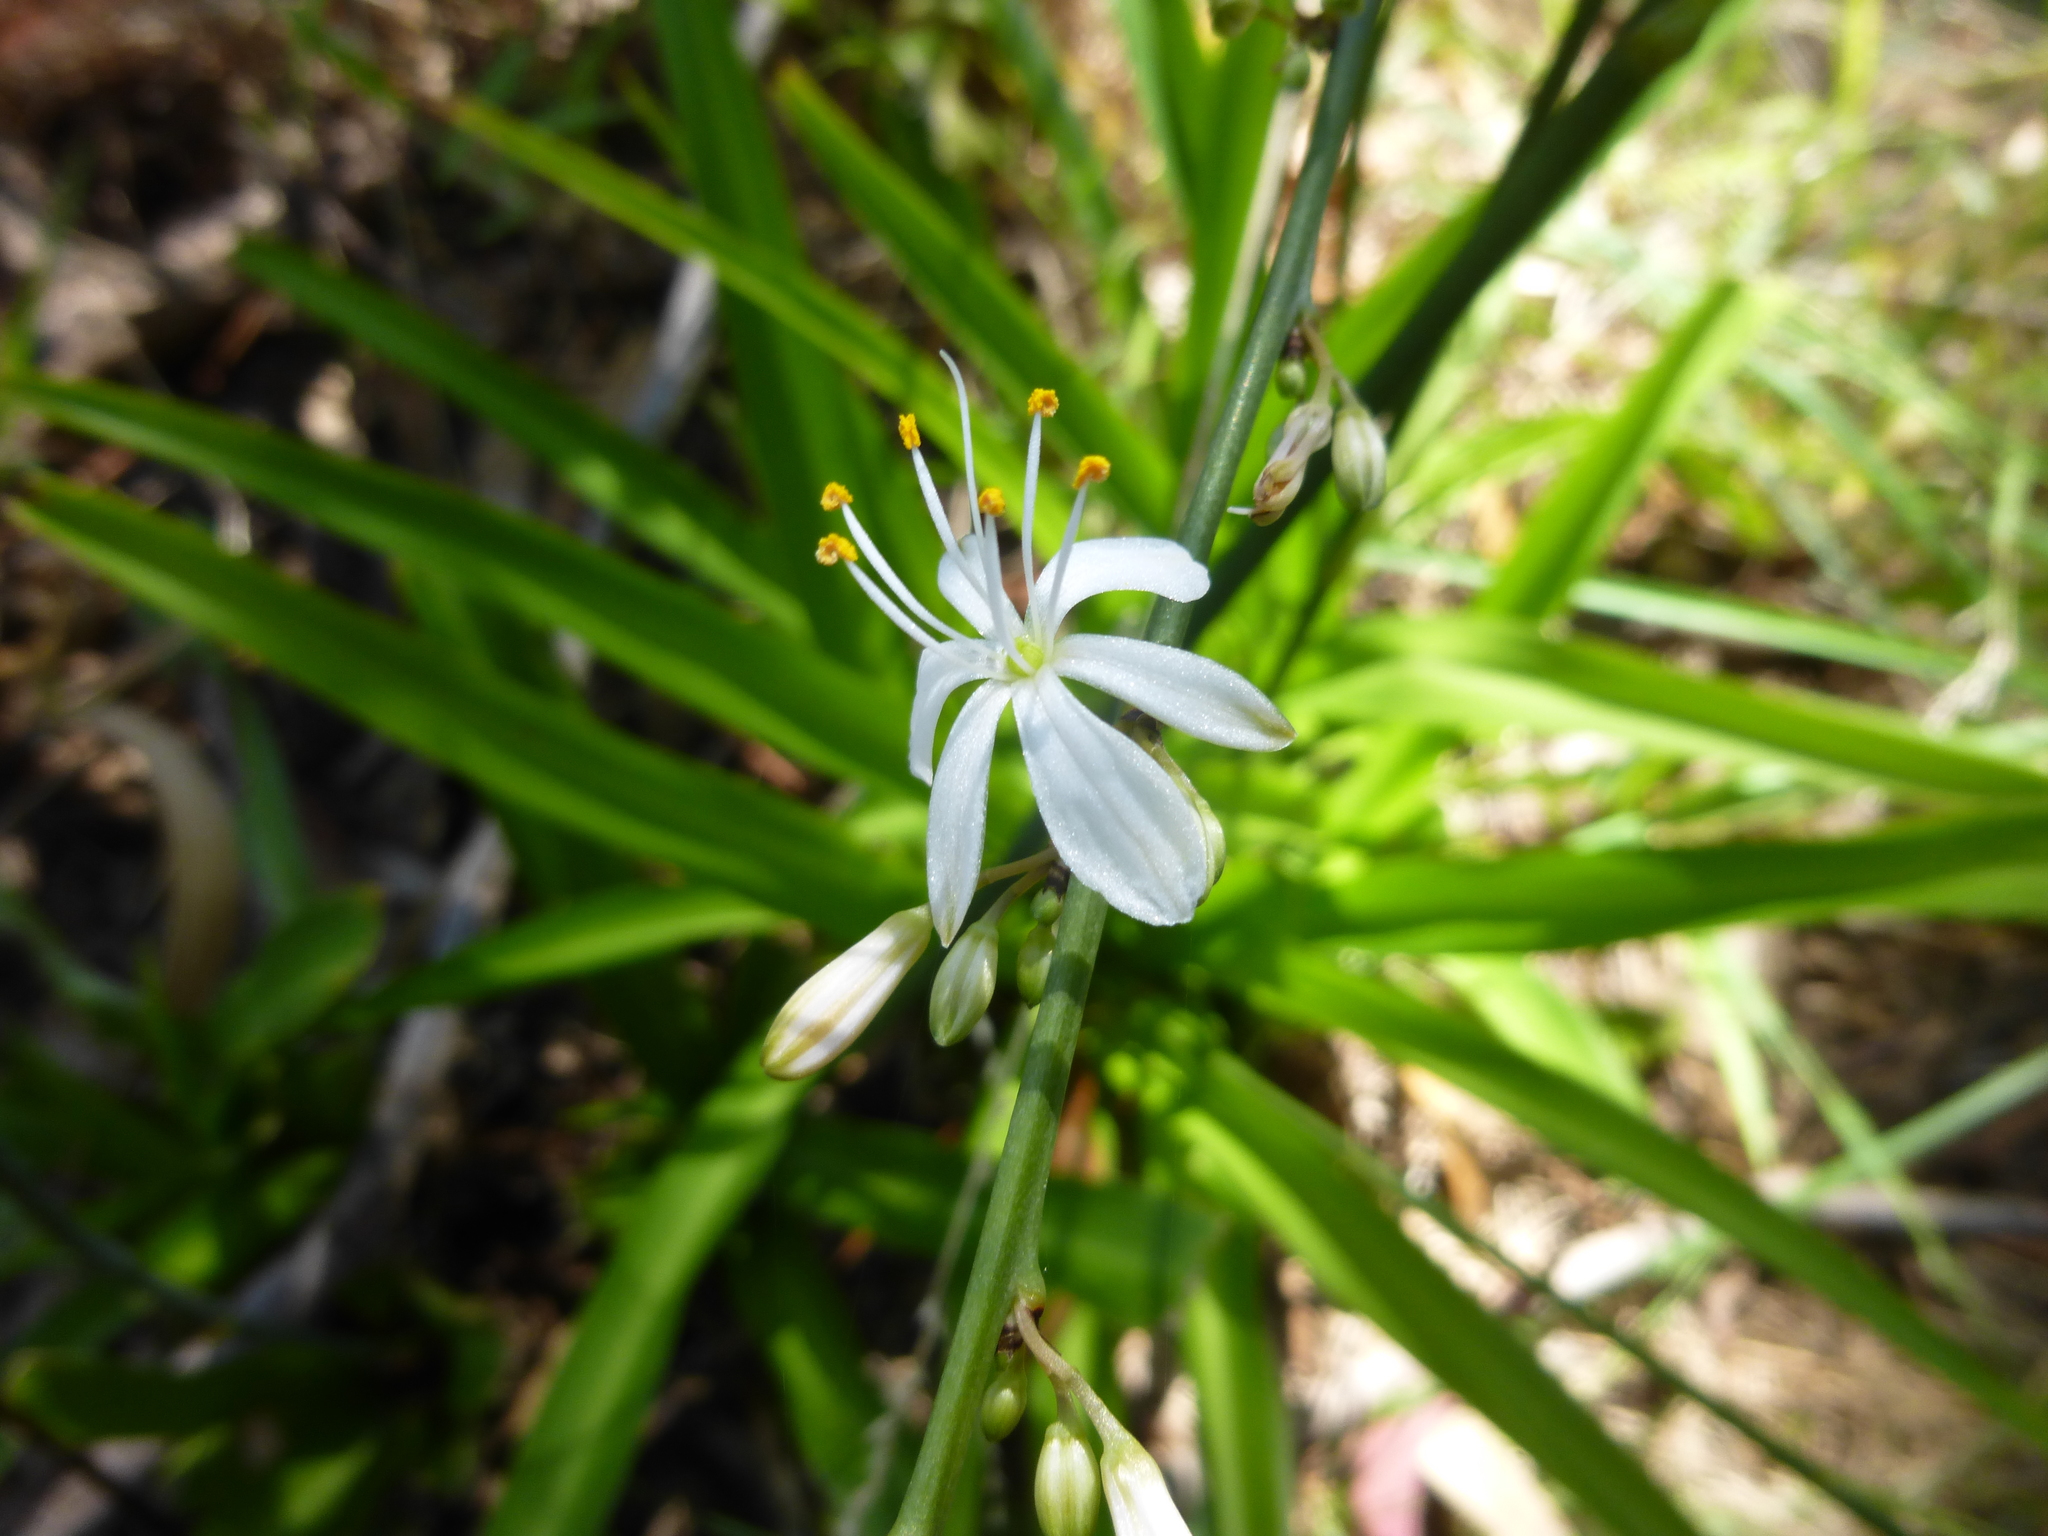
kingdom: Plantae
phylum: Tracheophyta
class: Liliopsida
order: Asparagales
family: Asparagaceae
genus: Chlorophytum
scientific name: Chlorophytum comosum
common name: Spider plant
